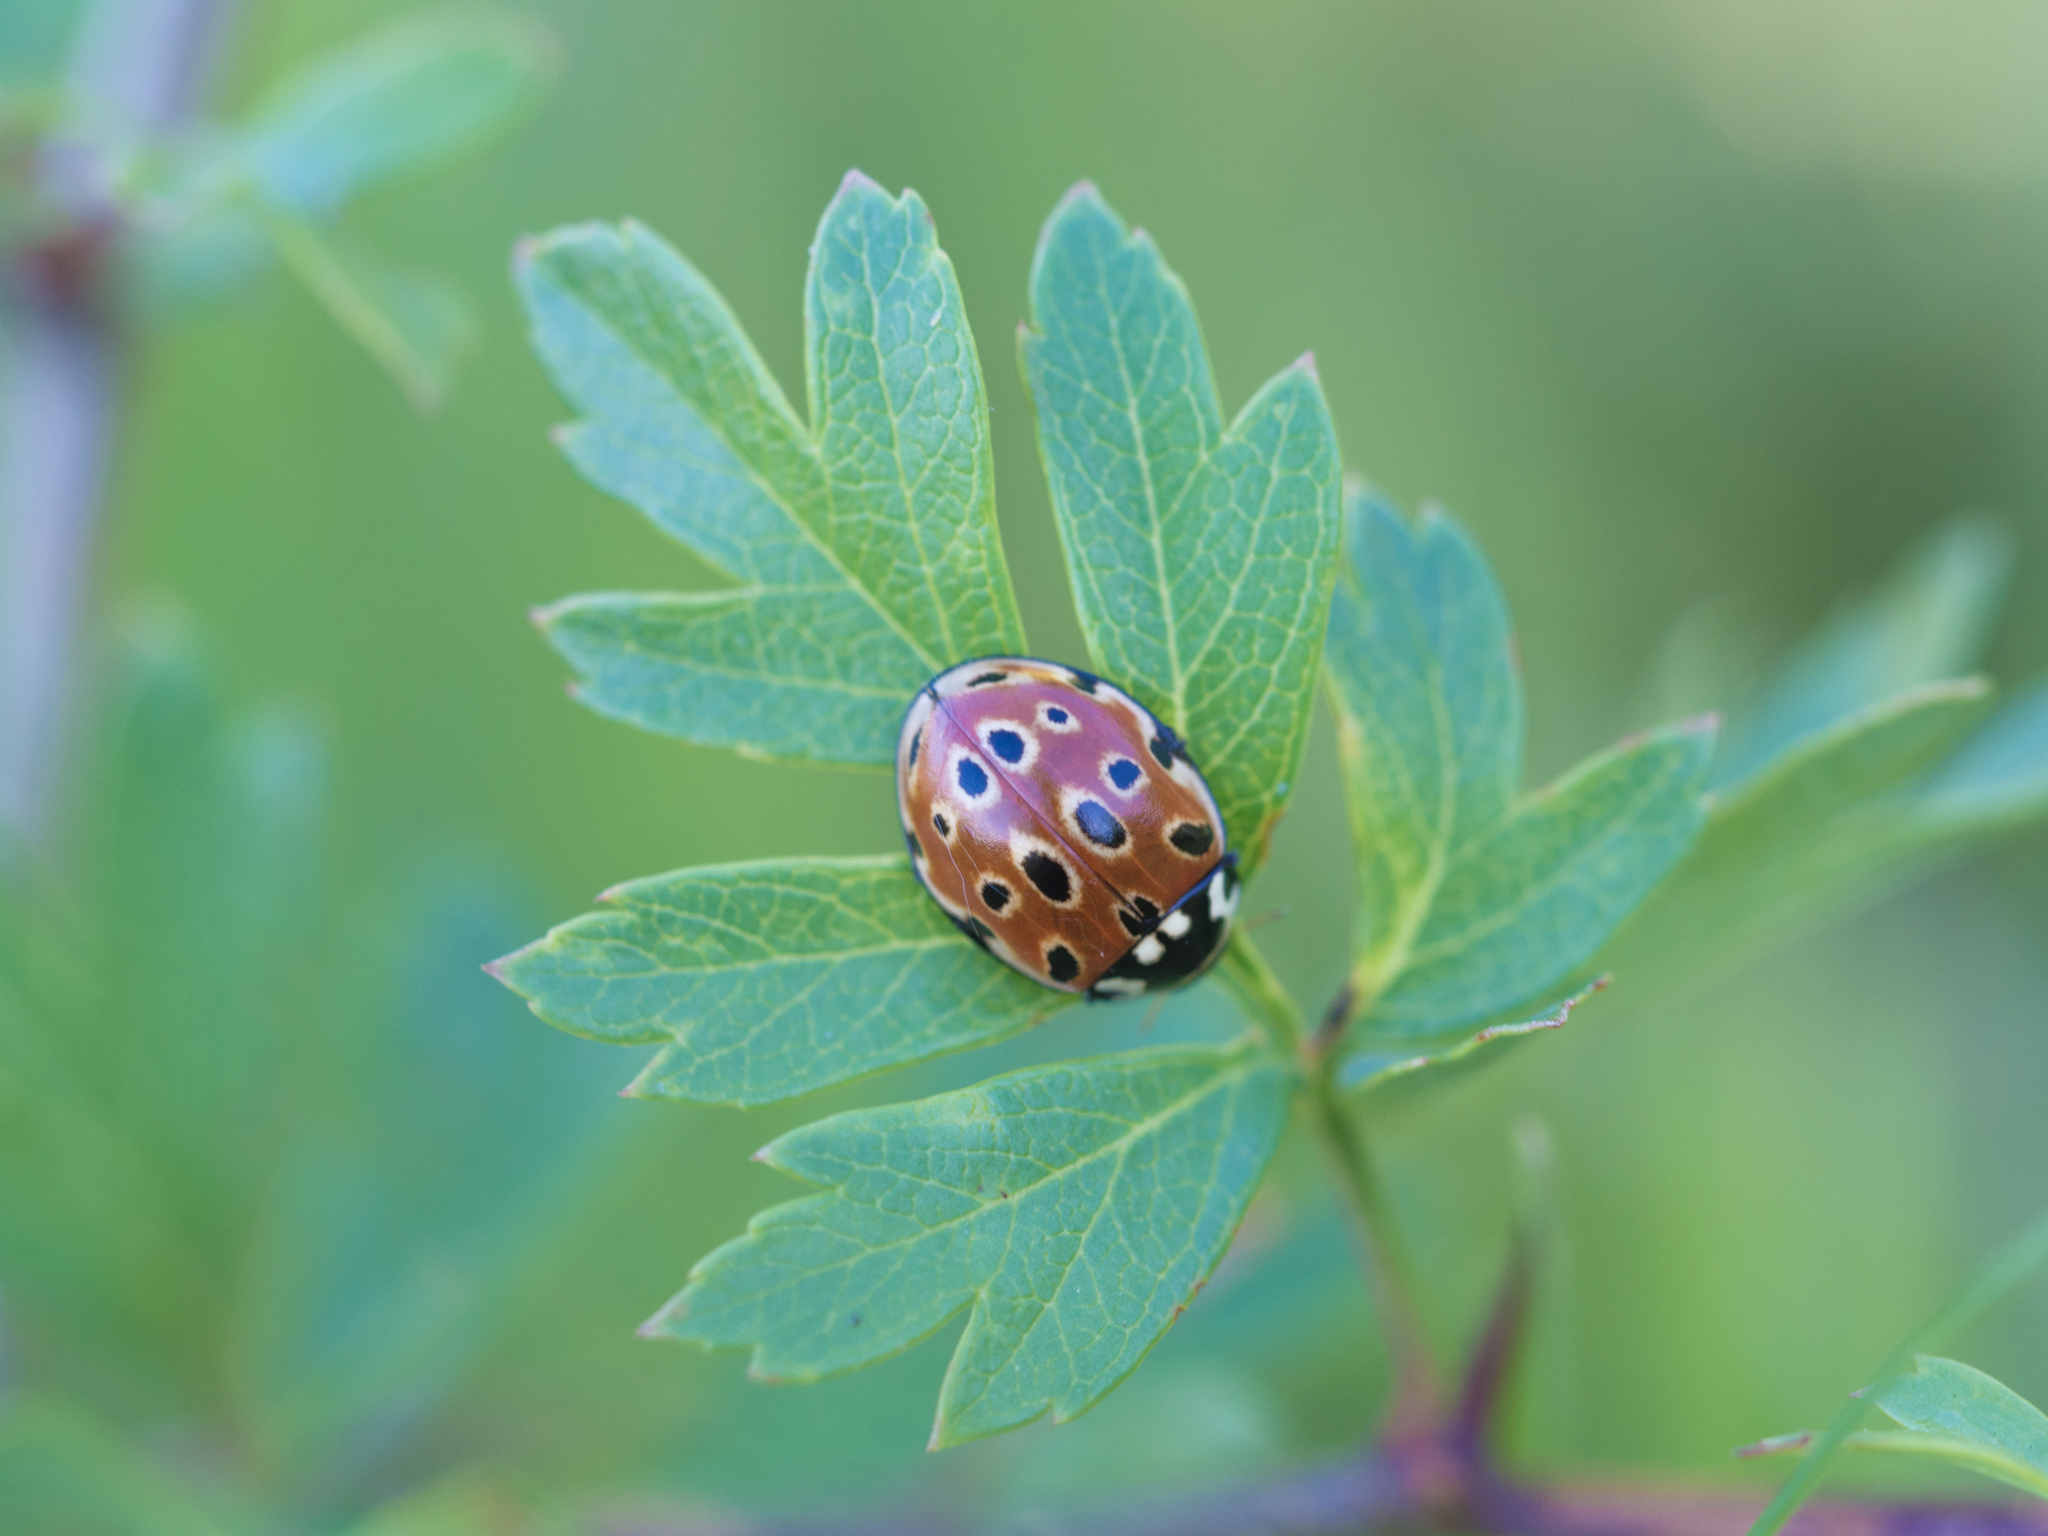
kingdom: Animalia
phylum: Arthropoda
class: Insecta
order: Coleoptera
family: Coccinellidae
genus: Anatis
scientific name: Anatis ocellata
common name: Eyed ladybird
